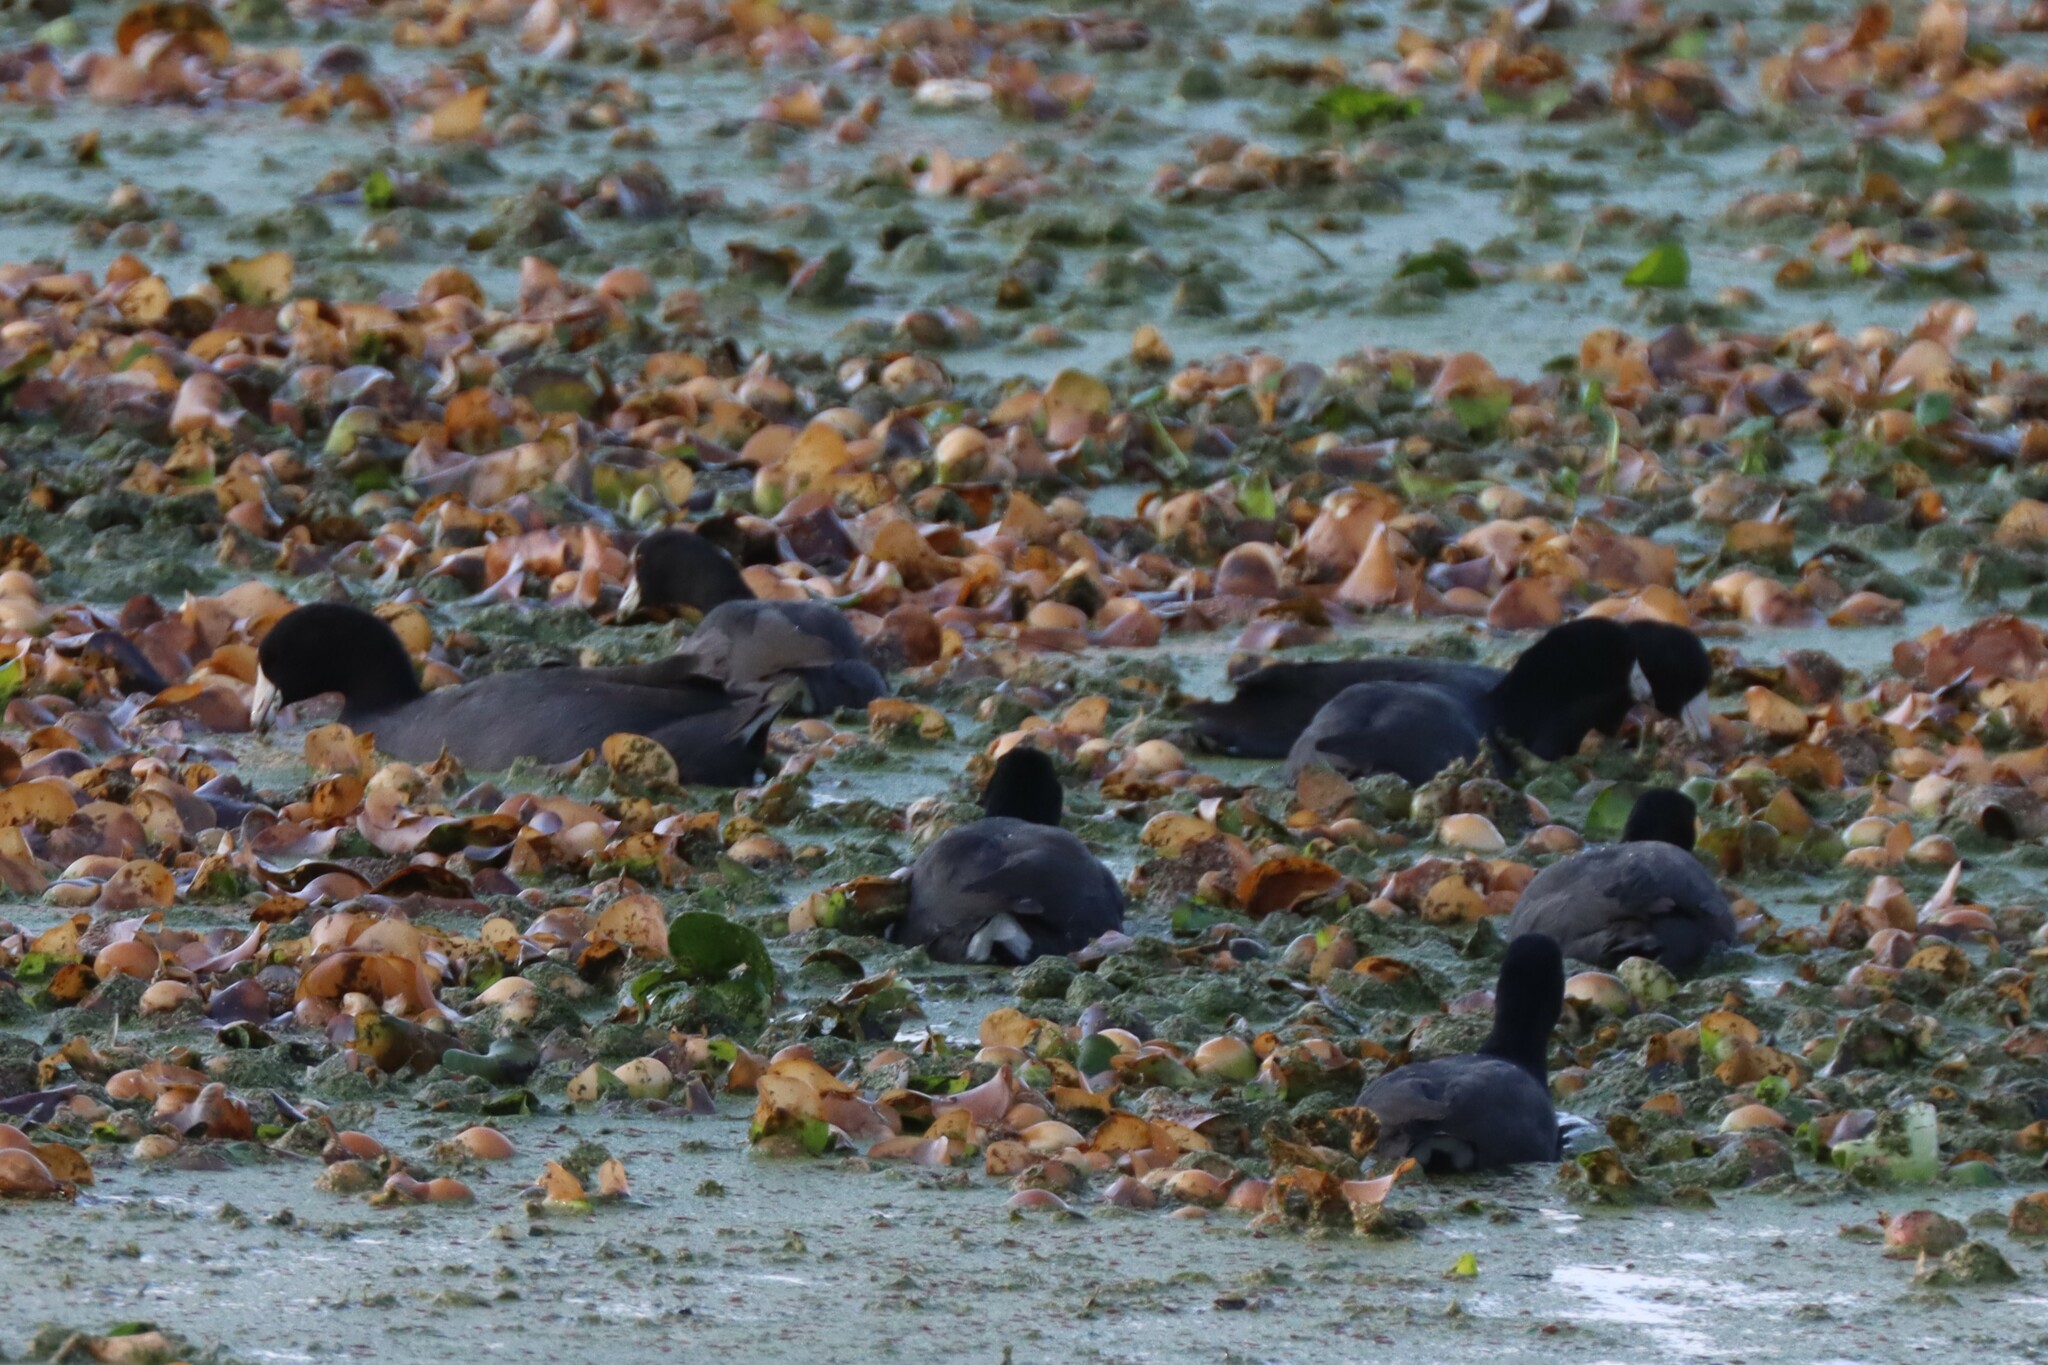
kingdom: Animalia
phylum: Chordata
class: Aves
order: Gruiformes
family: Rallidae
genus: Fulica
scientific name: Fulica americana
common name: American coot
